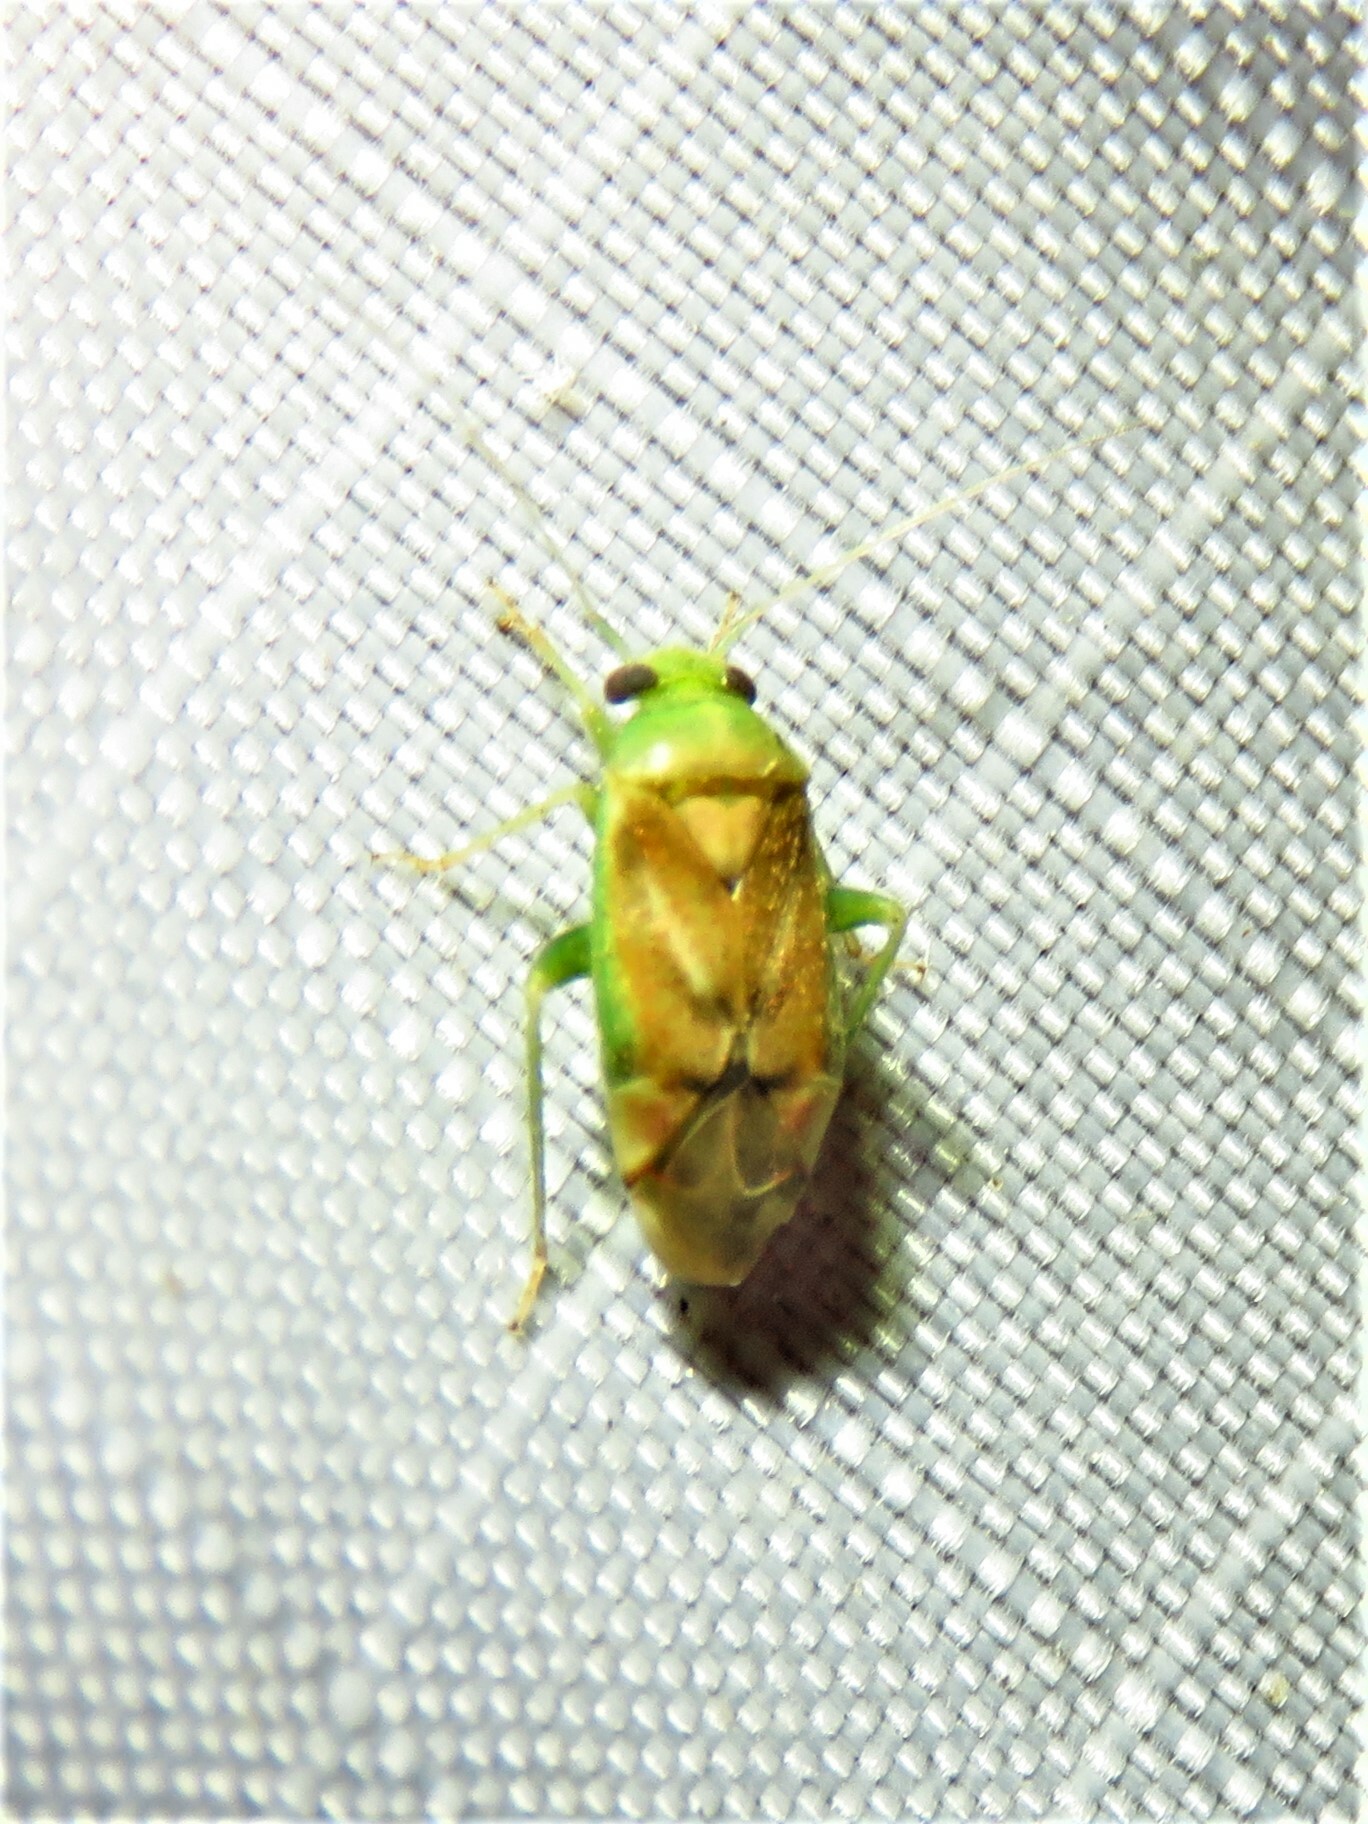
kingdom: Animalia
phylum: Arthropoda
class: Insecta
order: Hemiptera
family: Miridae
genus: Dichrooscytus
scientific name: Dichrooscytus
